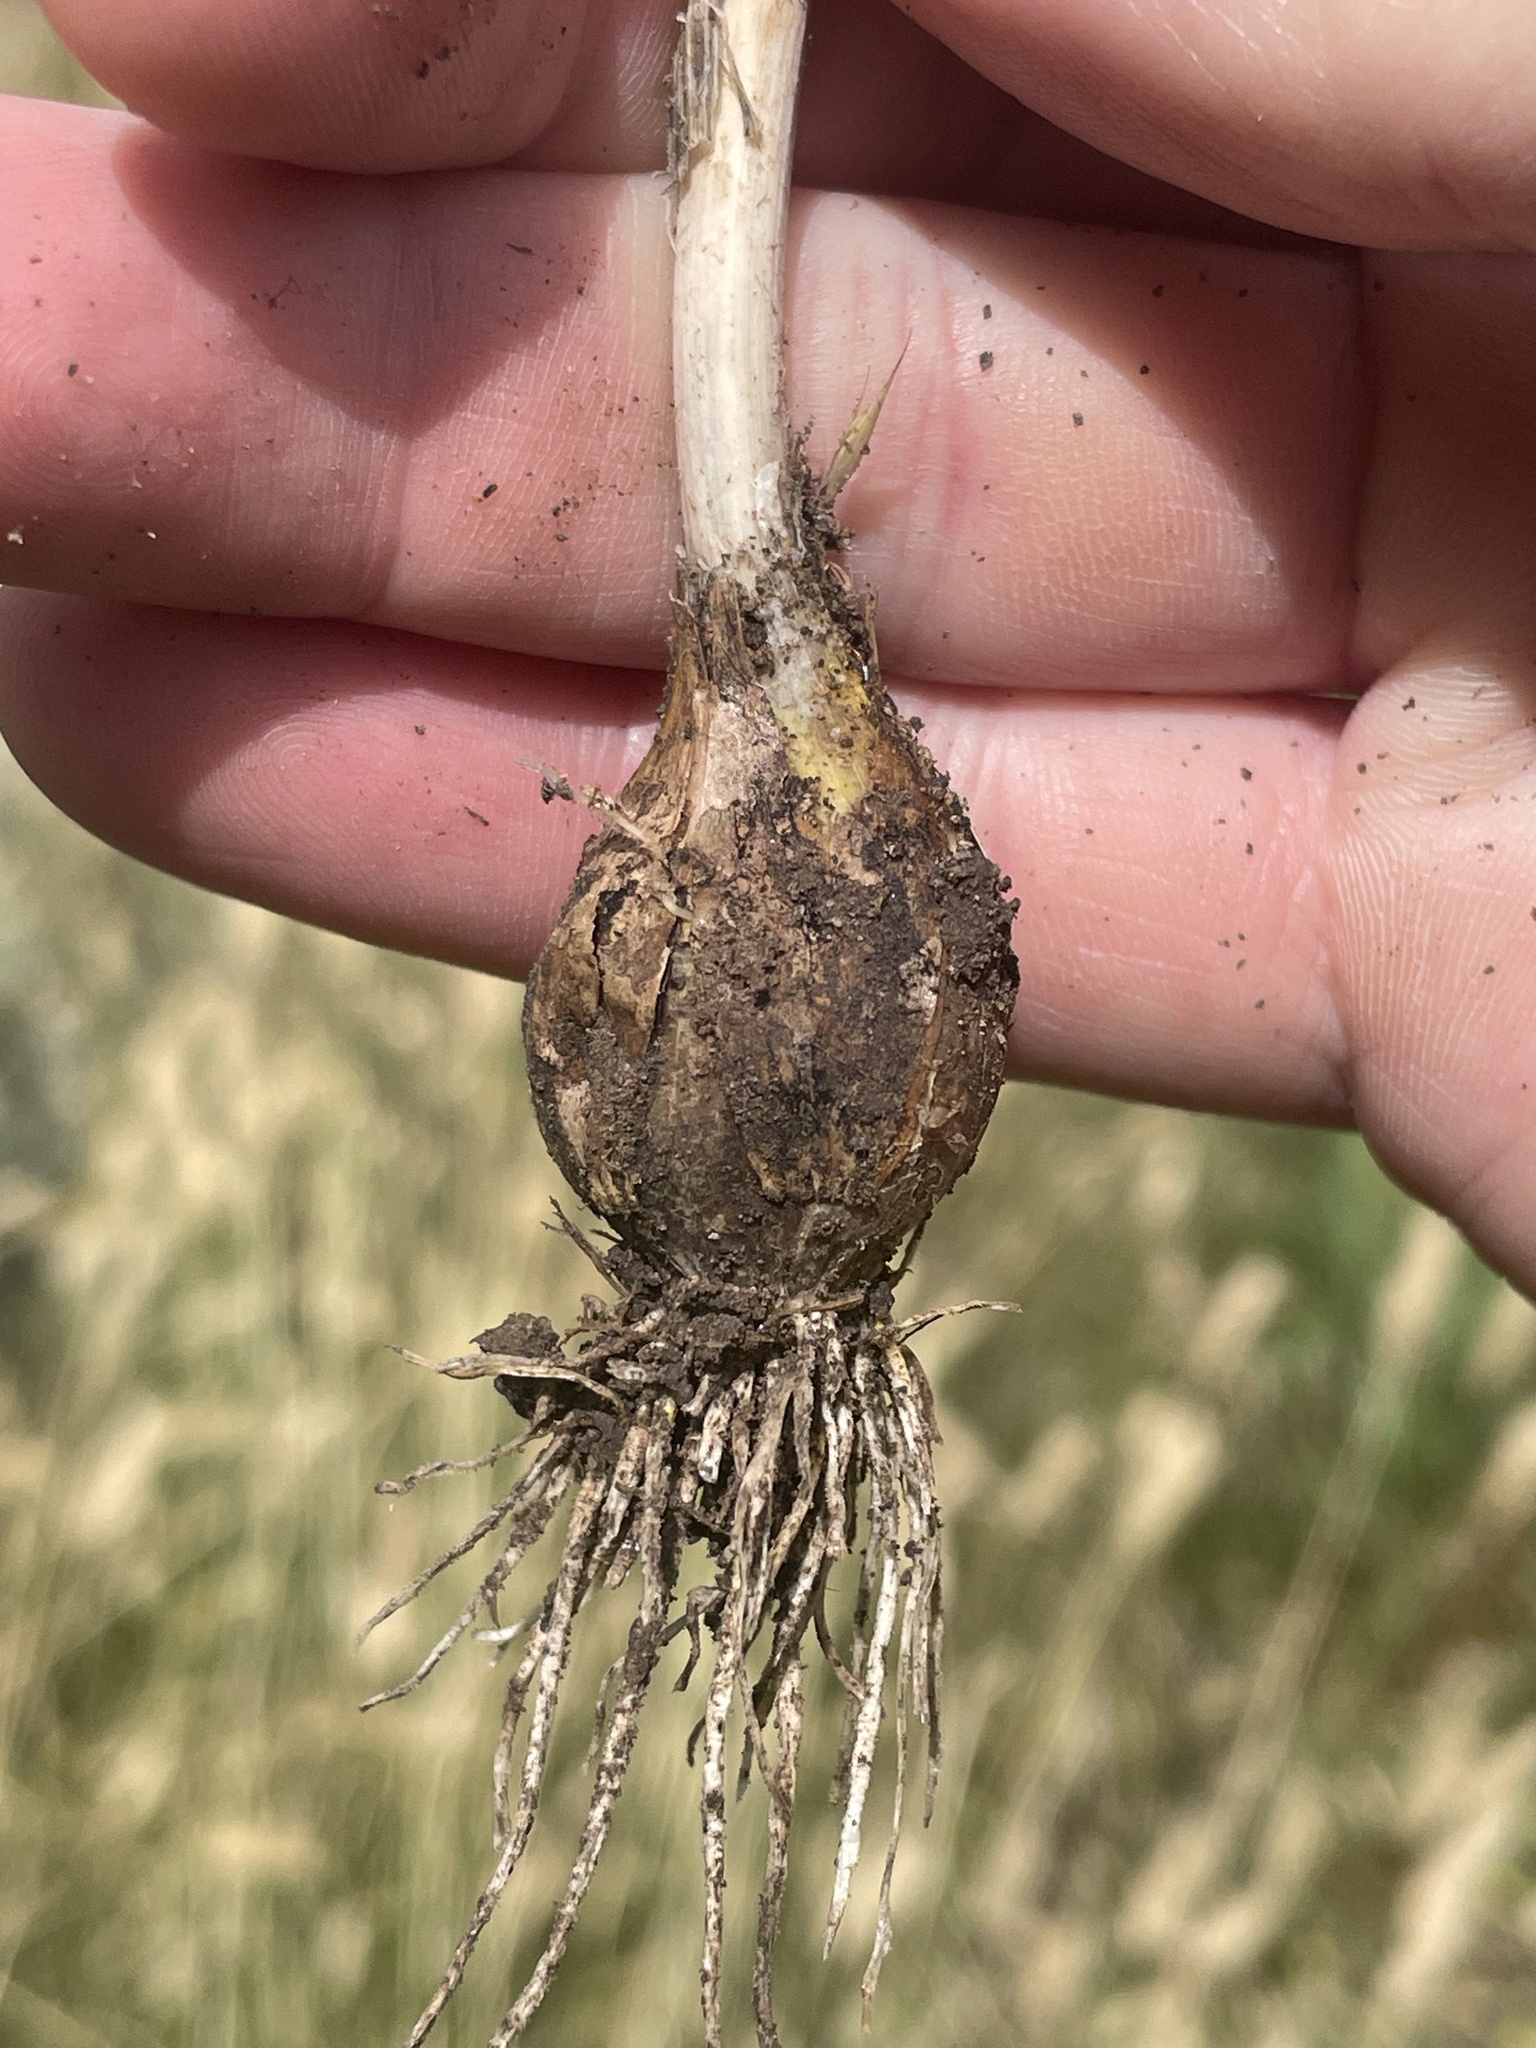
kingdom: Plantae
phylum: Tracheophyta
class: Liliopsida
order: Asparagales
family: Amaryllidaceae
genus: Allium
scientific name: Allium sativum
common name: Garlic
